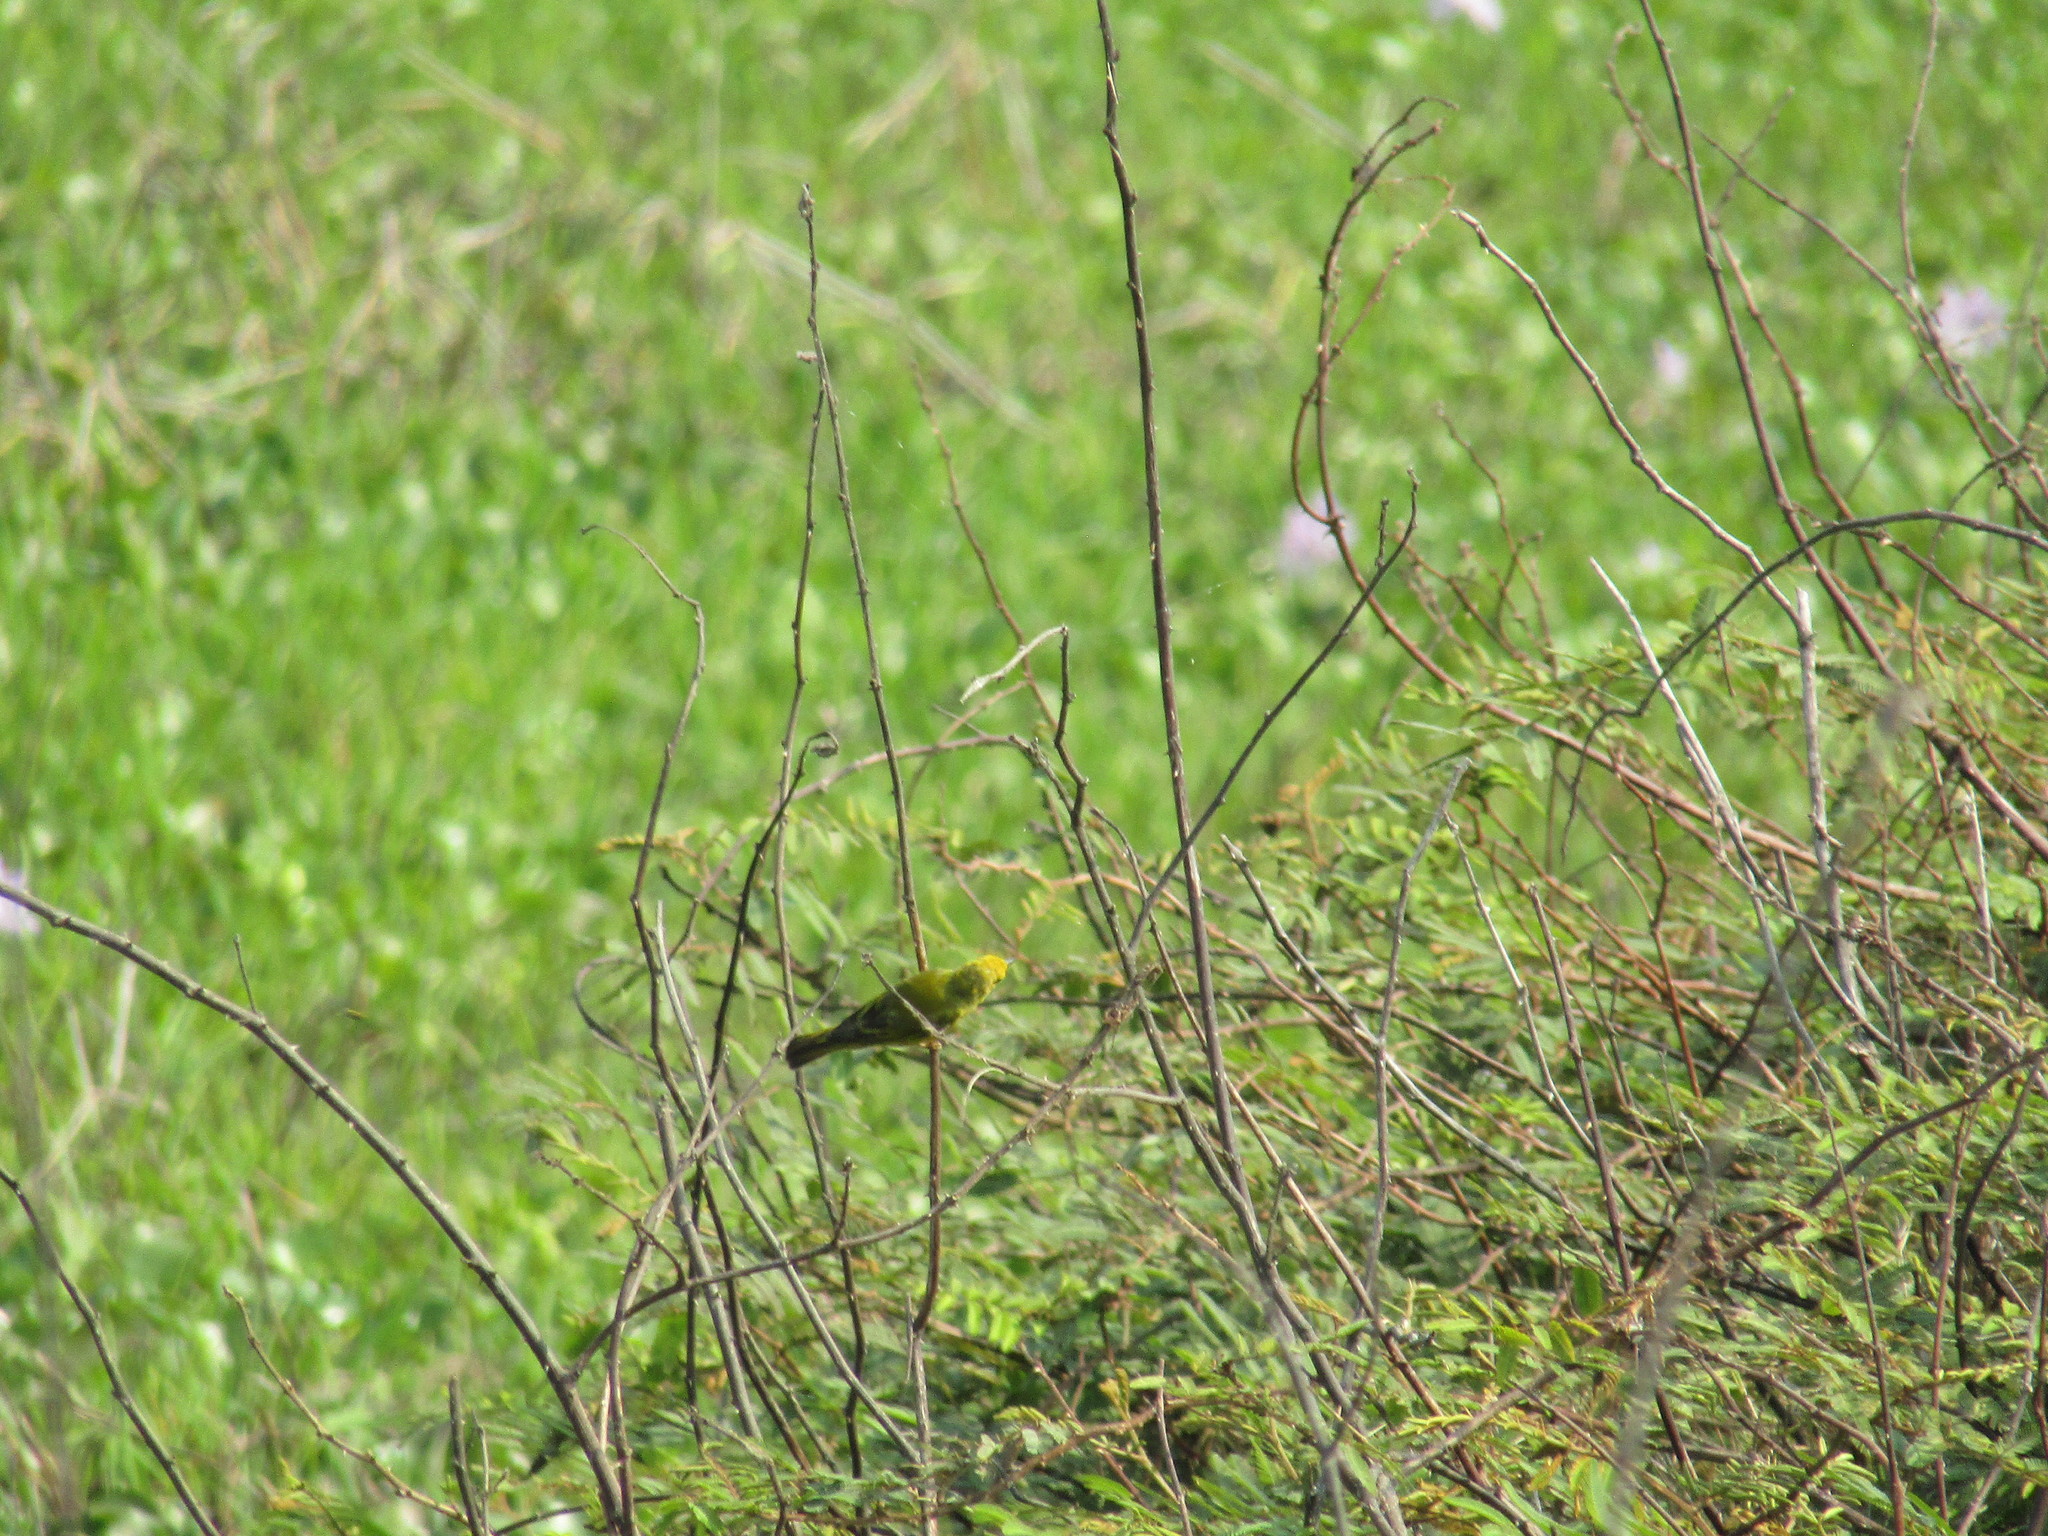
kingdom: Animalia
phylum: Chordata
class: Aves
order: Passeriformes
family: Thraupidae
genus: Sicalis
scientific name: Sicalis luteola
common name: Grassland yellow-finch
